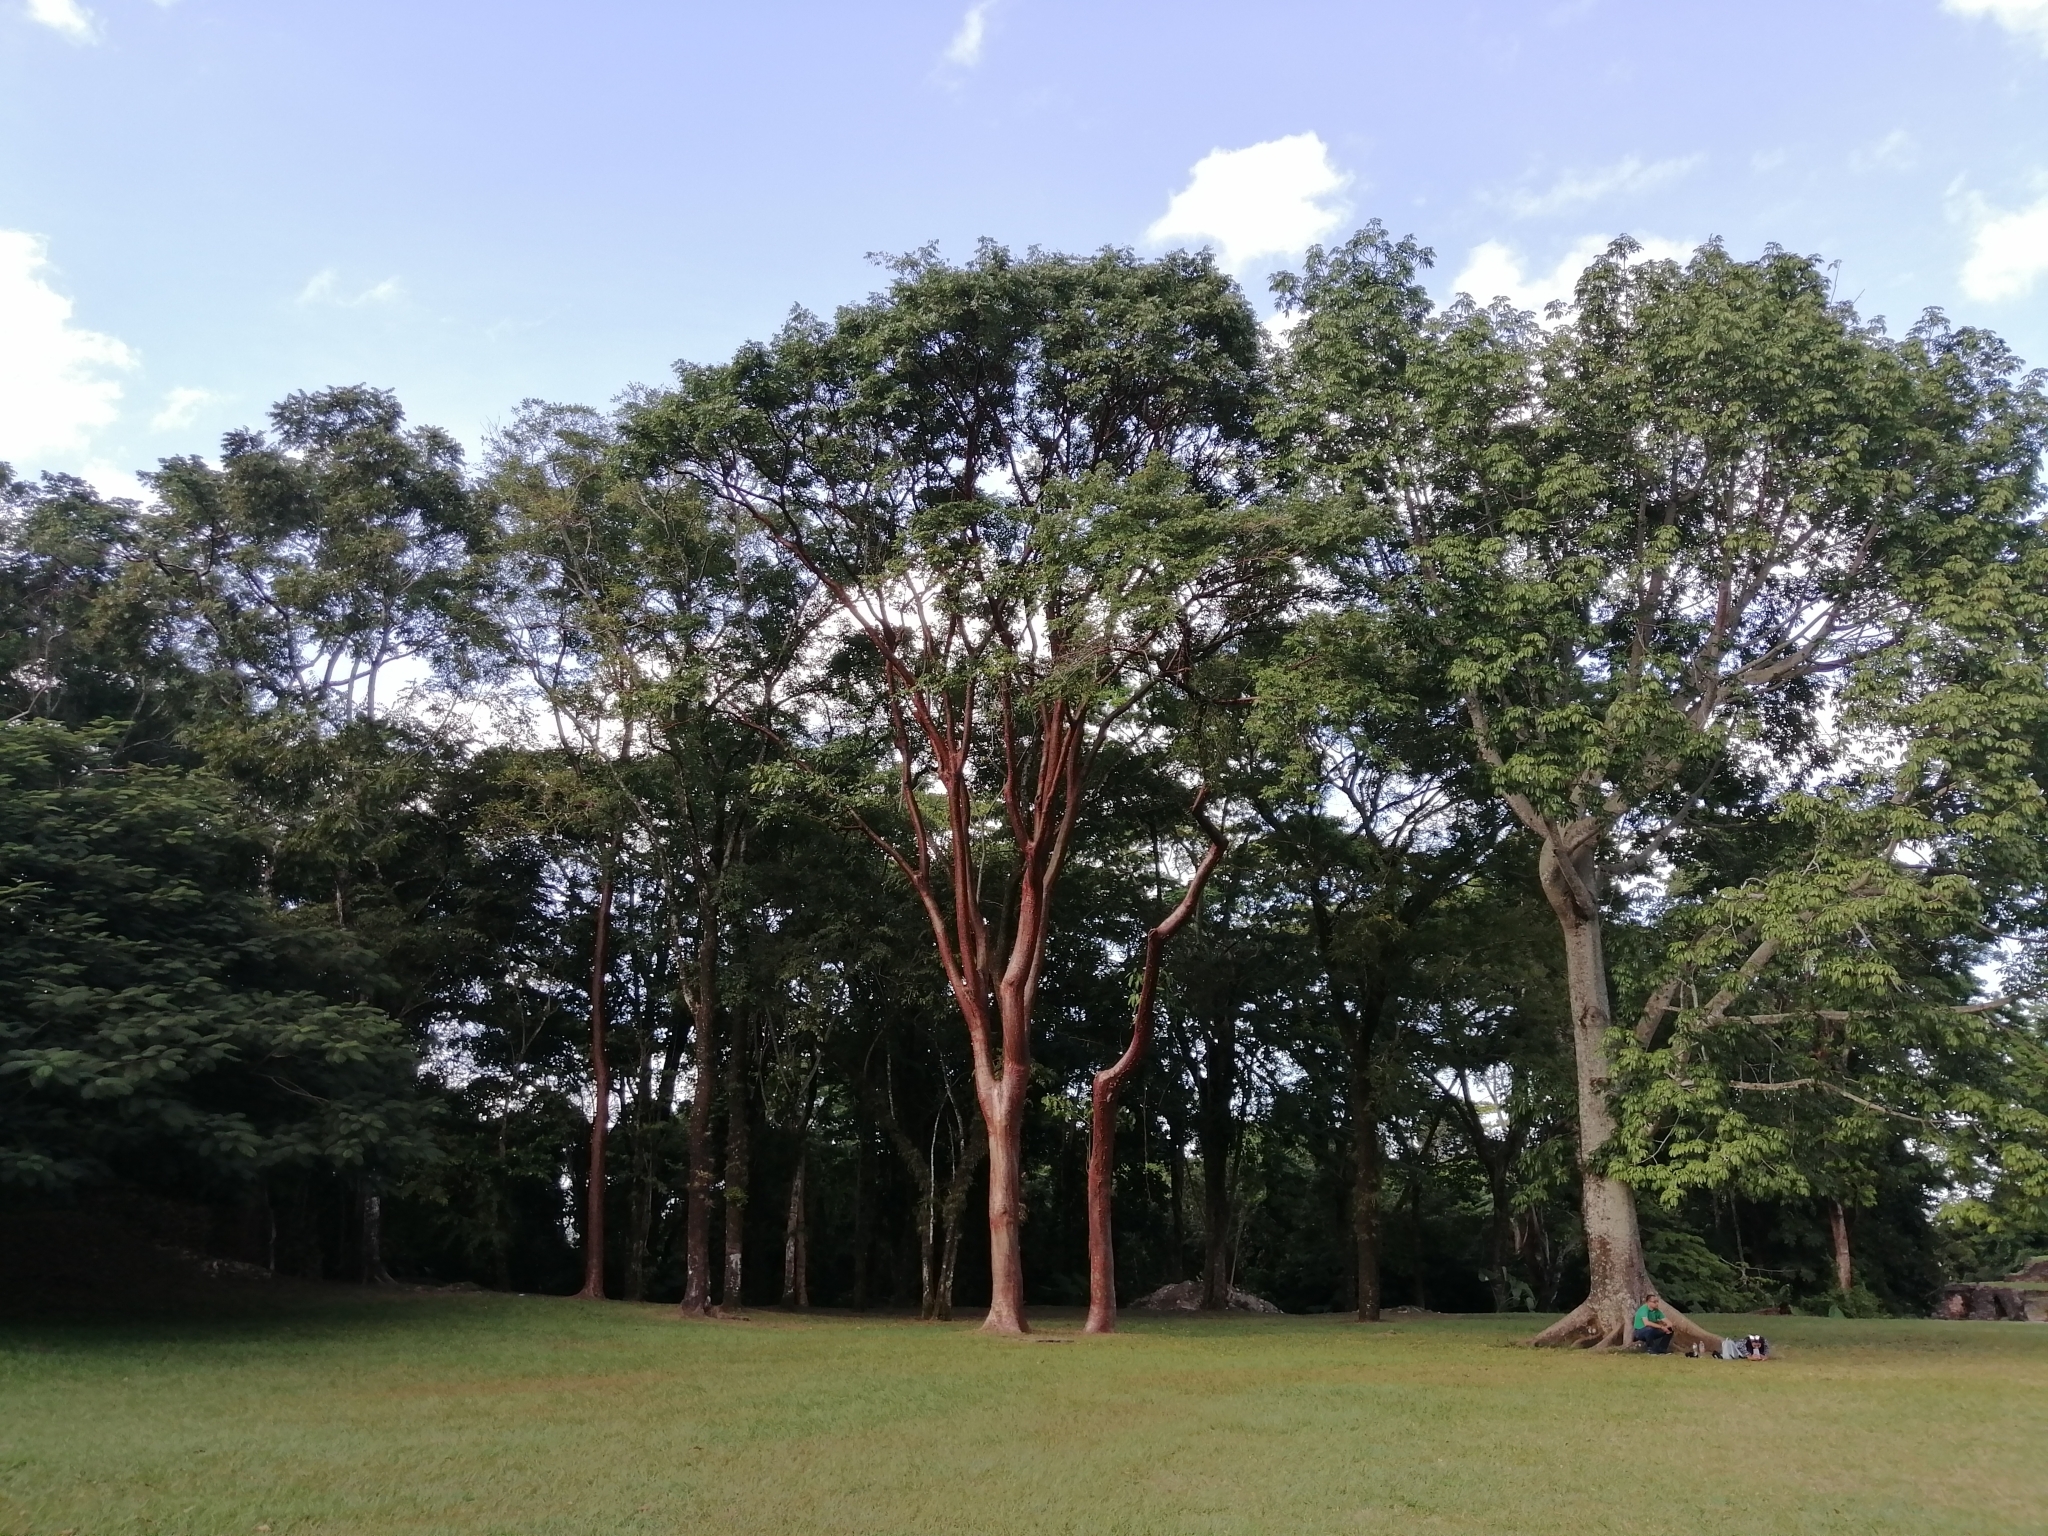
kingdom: Plantae
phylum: Tracheophyta
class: Magnoliopsida
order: Sapindales
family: Burseraceae
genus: Bursera
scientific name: Bursera simaruba
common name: Turpentine tree
